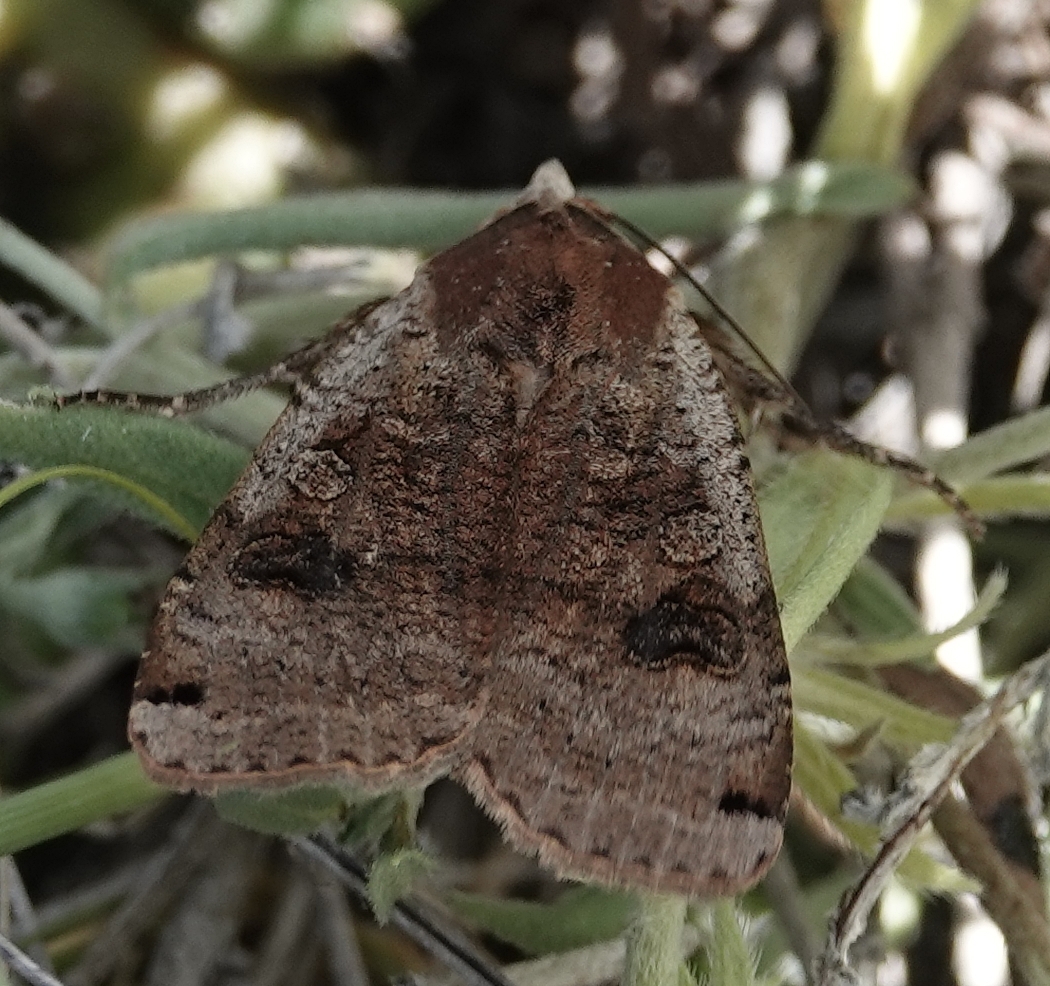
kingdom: Animalia
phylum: Arthropoda
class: Insecta
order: Lepidoptera
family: Noctuidae
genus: Noctua
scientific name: Noctua pronuba
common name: Large yellow underwing
